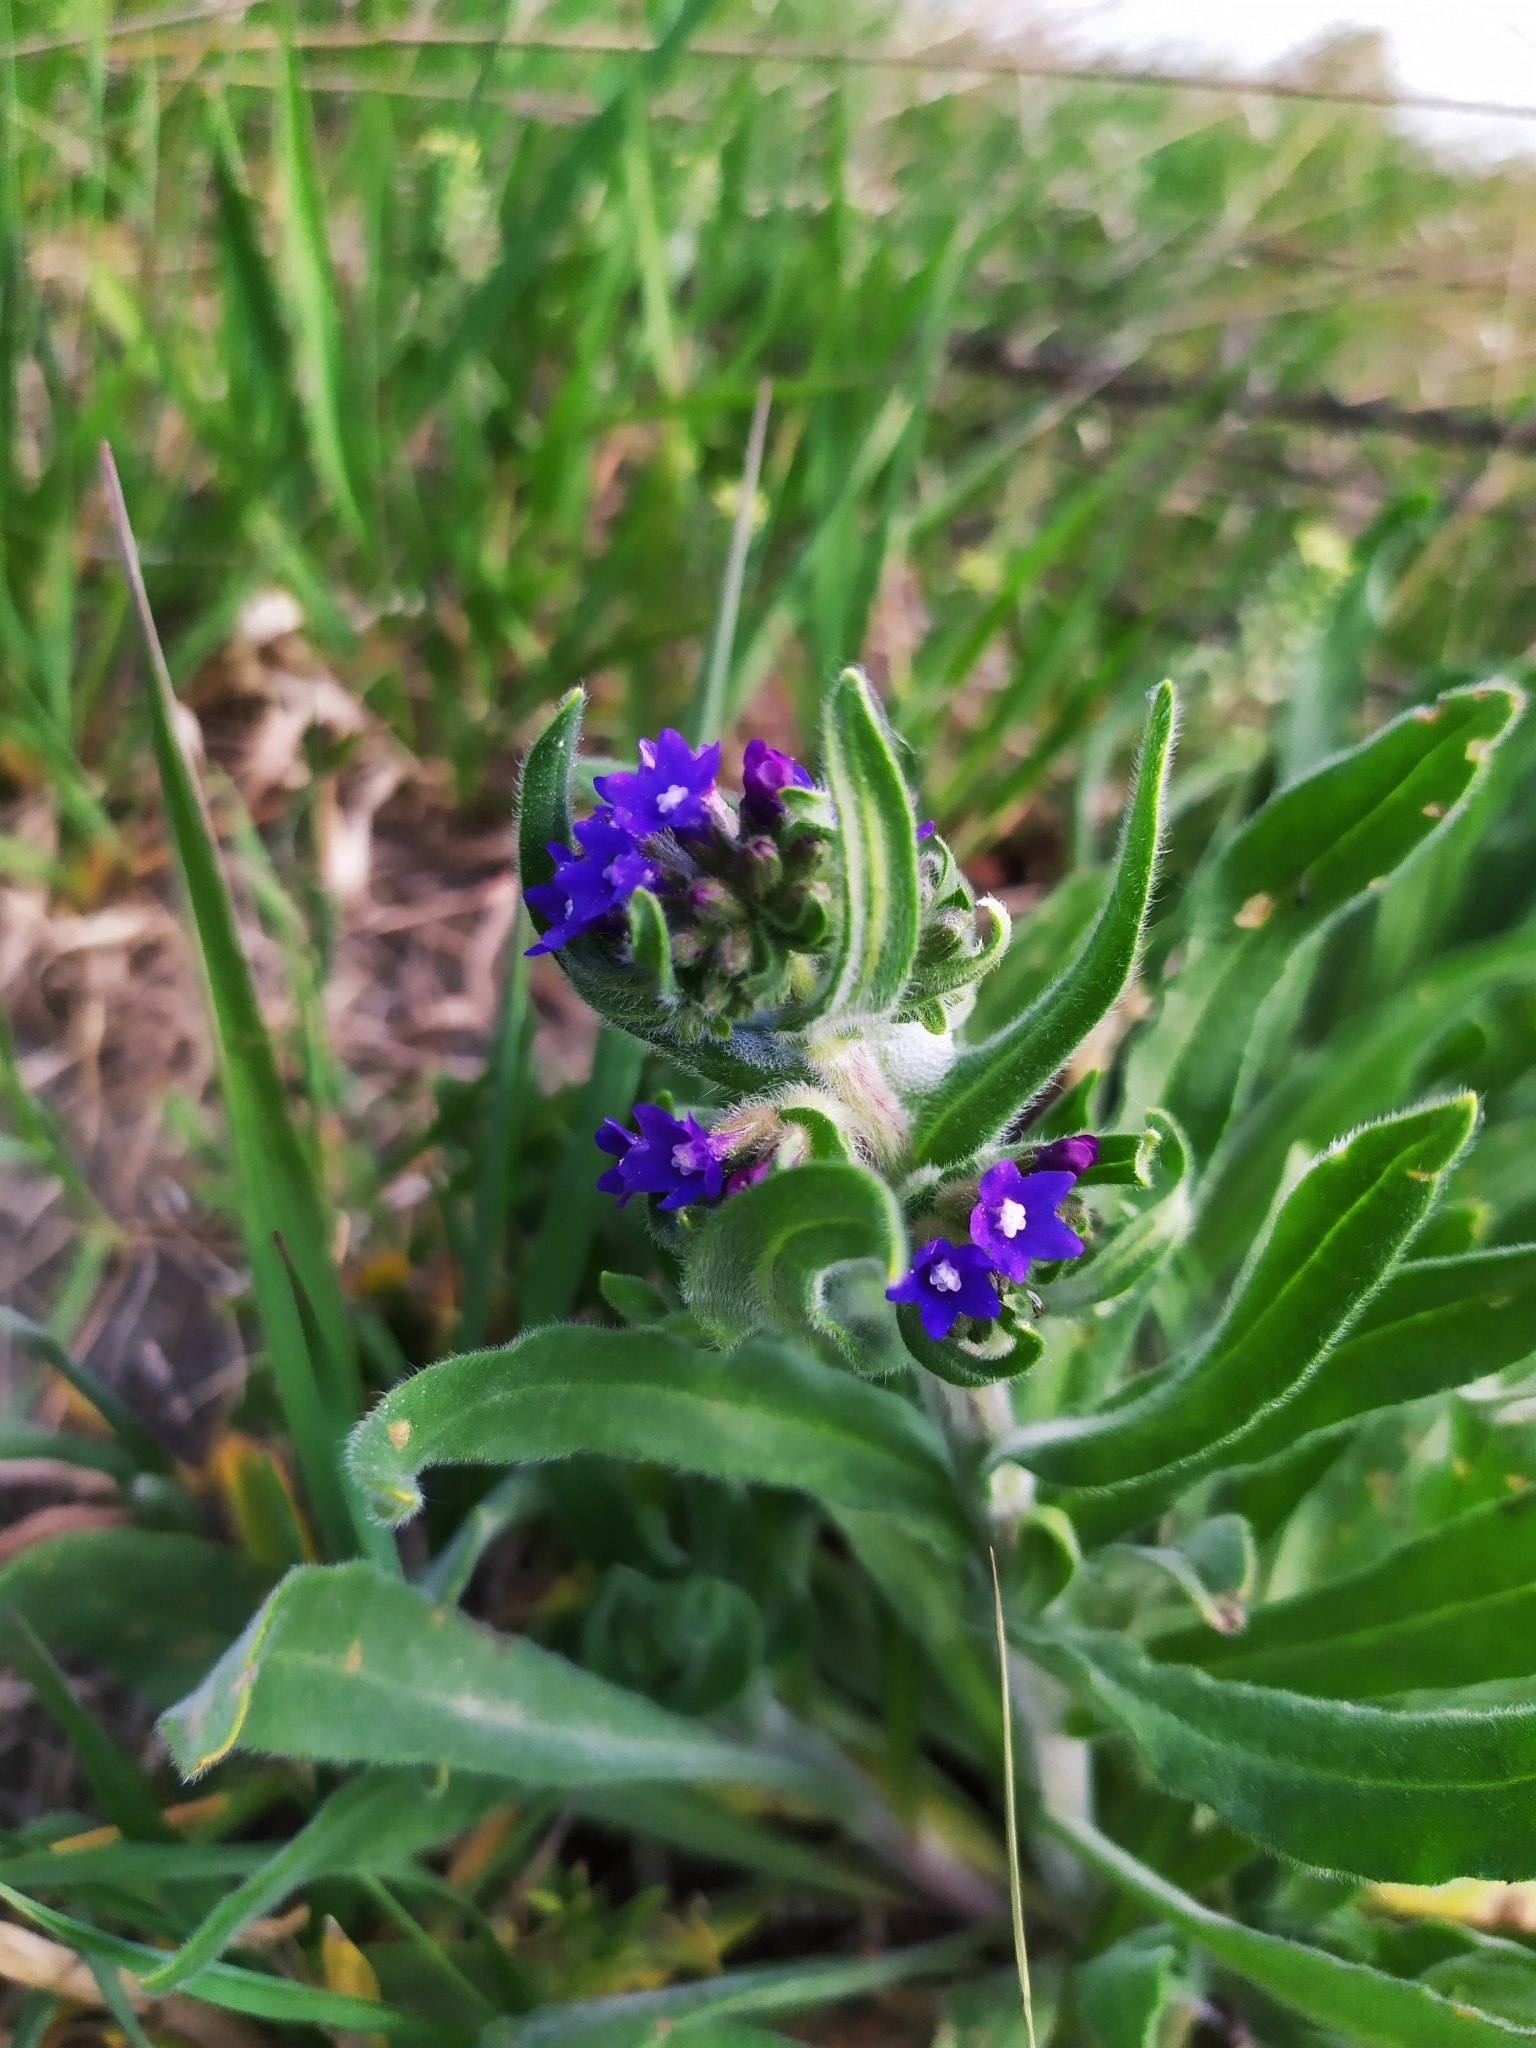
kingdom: Plantae
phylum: Tracheophyta
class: Magnoliopsida
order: Boraginales
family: Boraginaceae
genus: Anchusa
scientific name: Anchusa officinalis
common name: Alkanet
